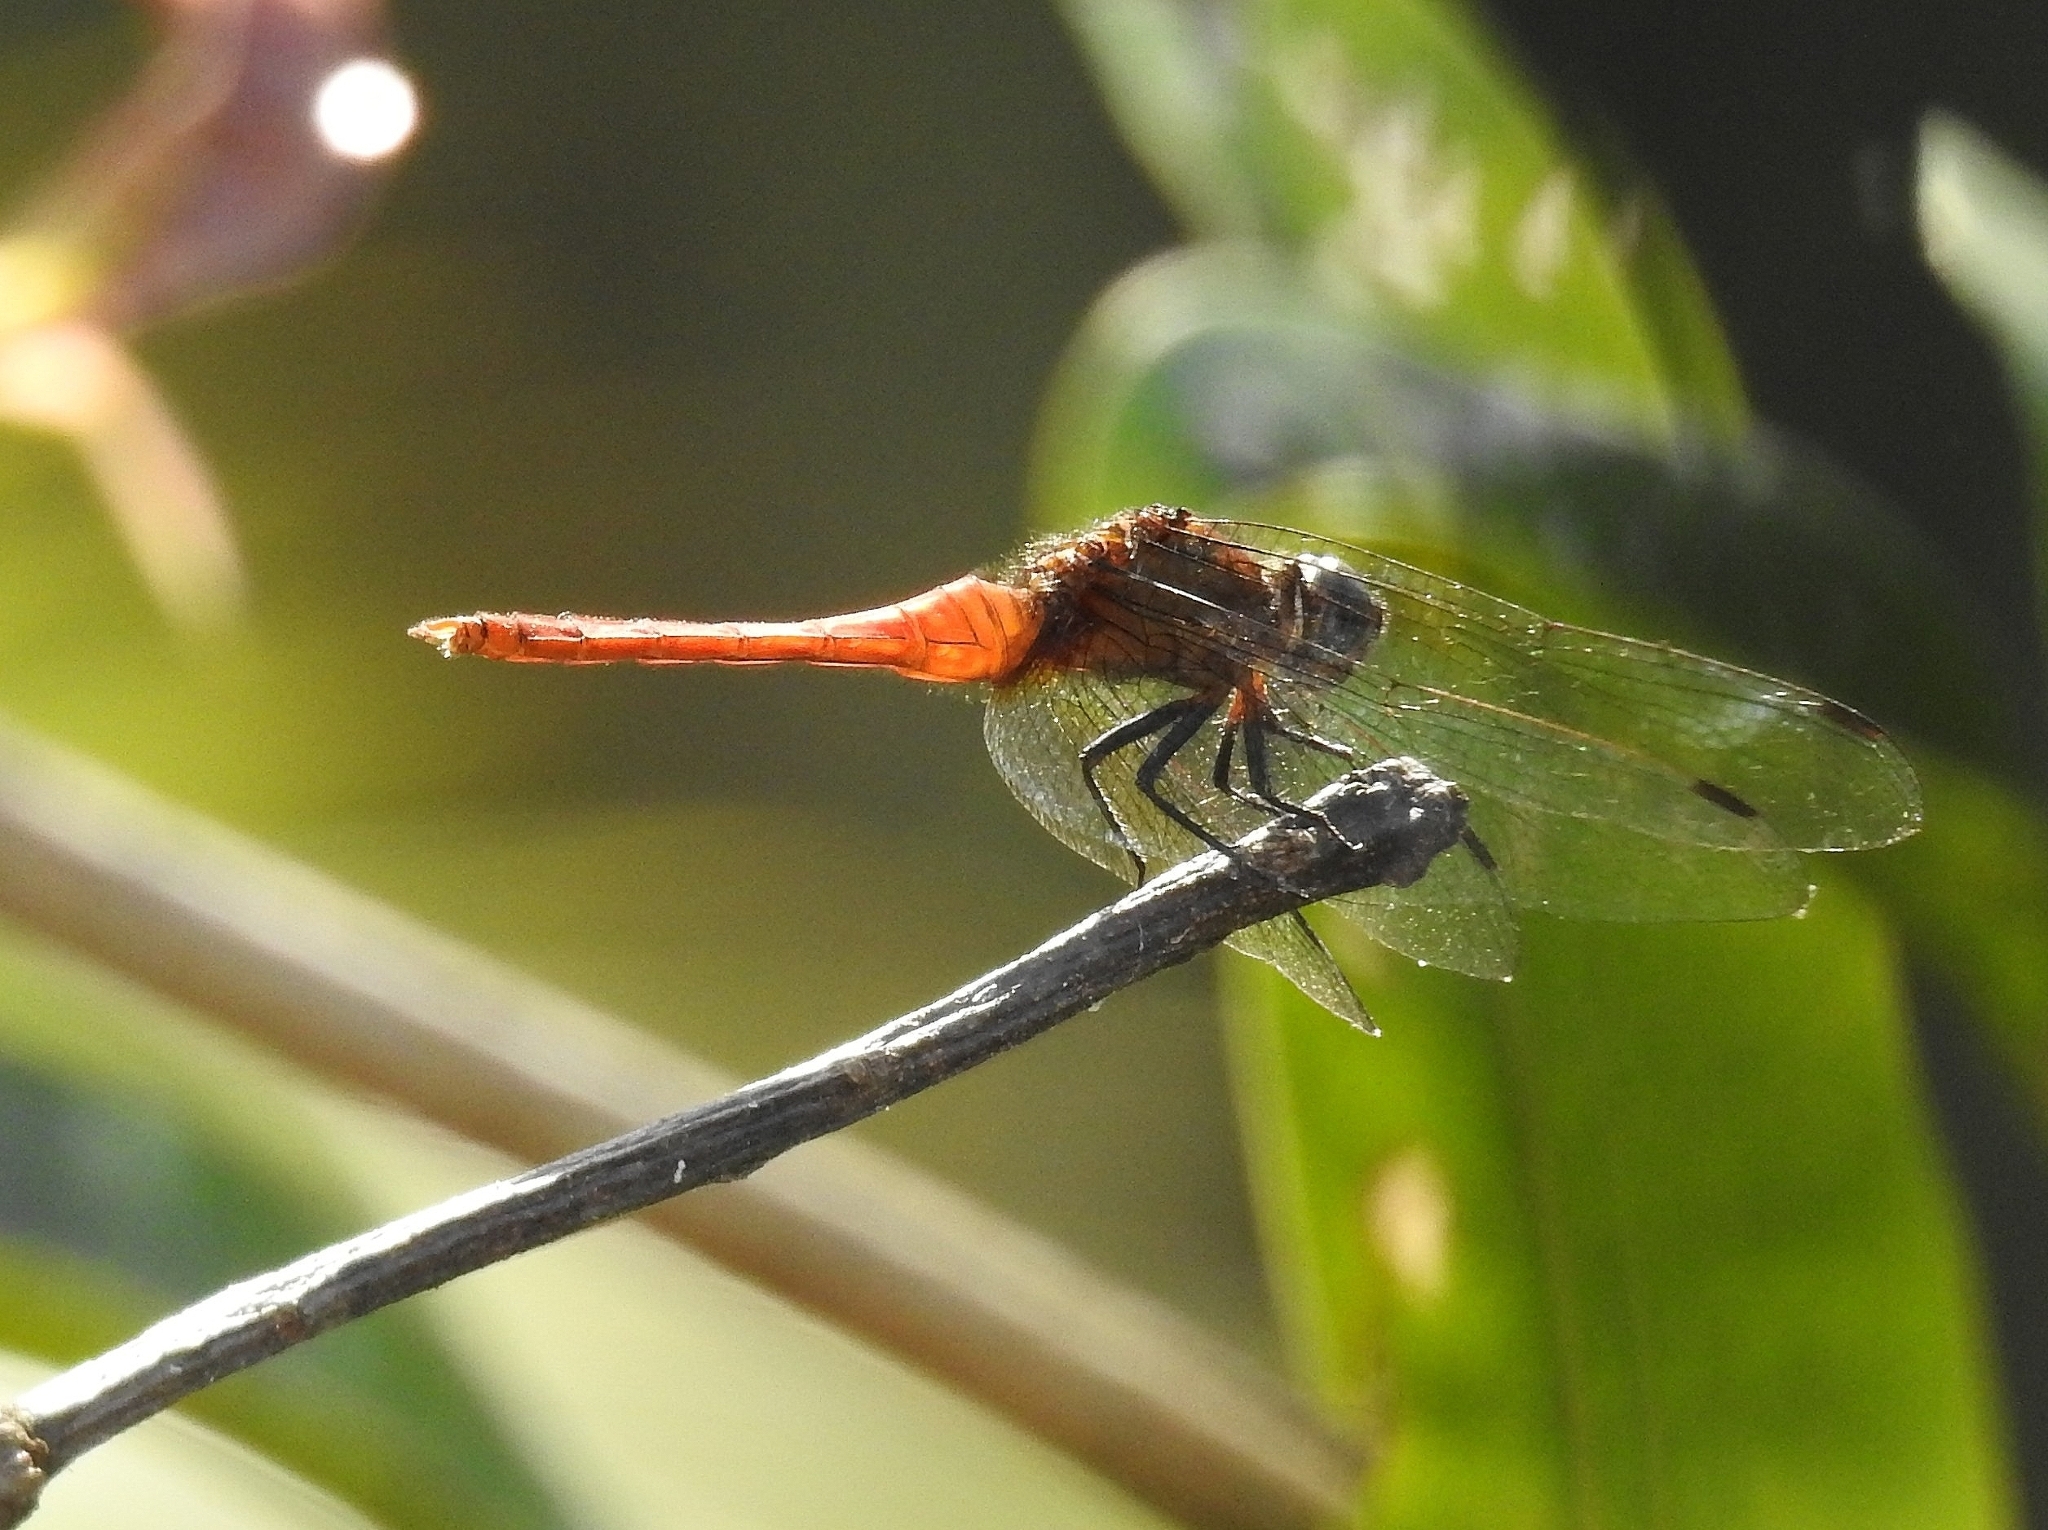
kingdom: Animalia
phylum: Arthropoda
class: Insecta
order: Odonata
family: Libellulidae
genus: Orthetrum
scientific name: Orthetrum chrysis
